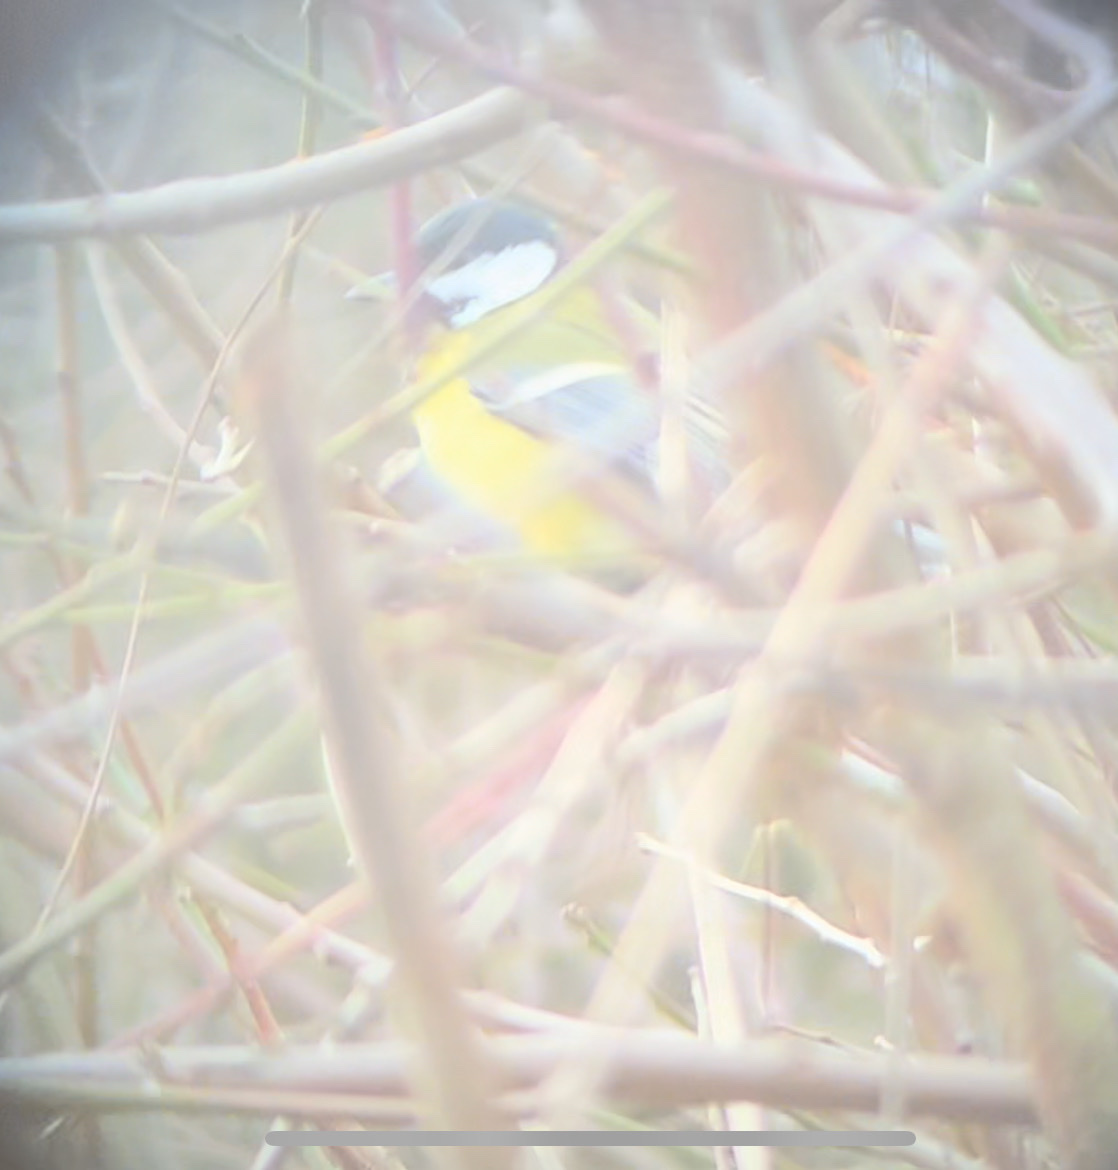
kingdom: Animalia
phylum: Chordata
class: Aves
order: Passeriformes
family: Paridae
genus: Parus
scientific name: Parus major
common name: Great tit
